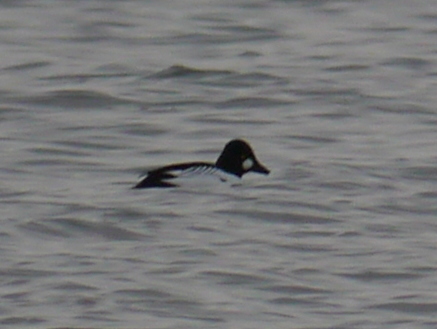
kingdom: Animalia
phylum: Chordata
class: Aves
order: Anseriformes
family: Anatidae
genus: Bucephala
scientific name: Bucephala clangula
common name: Common goldeneye
